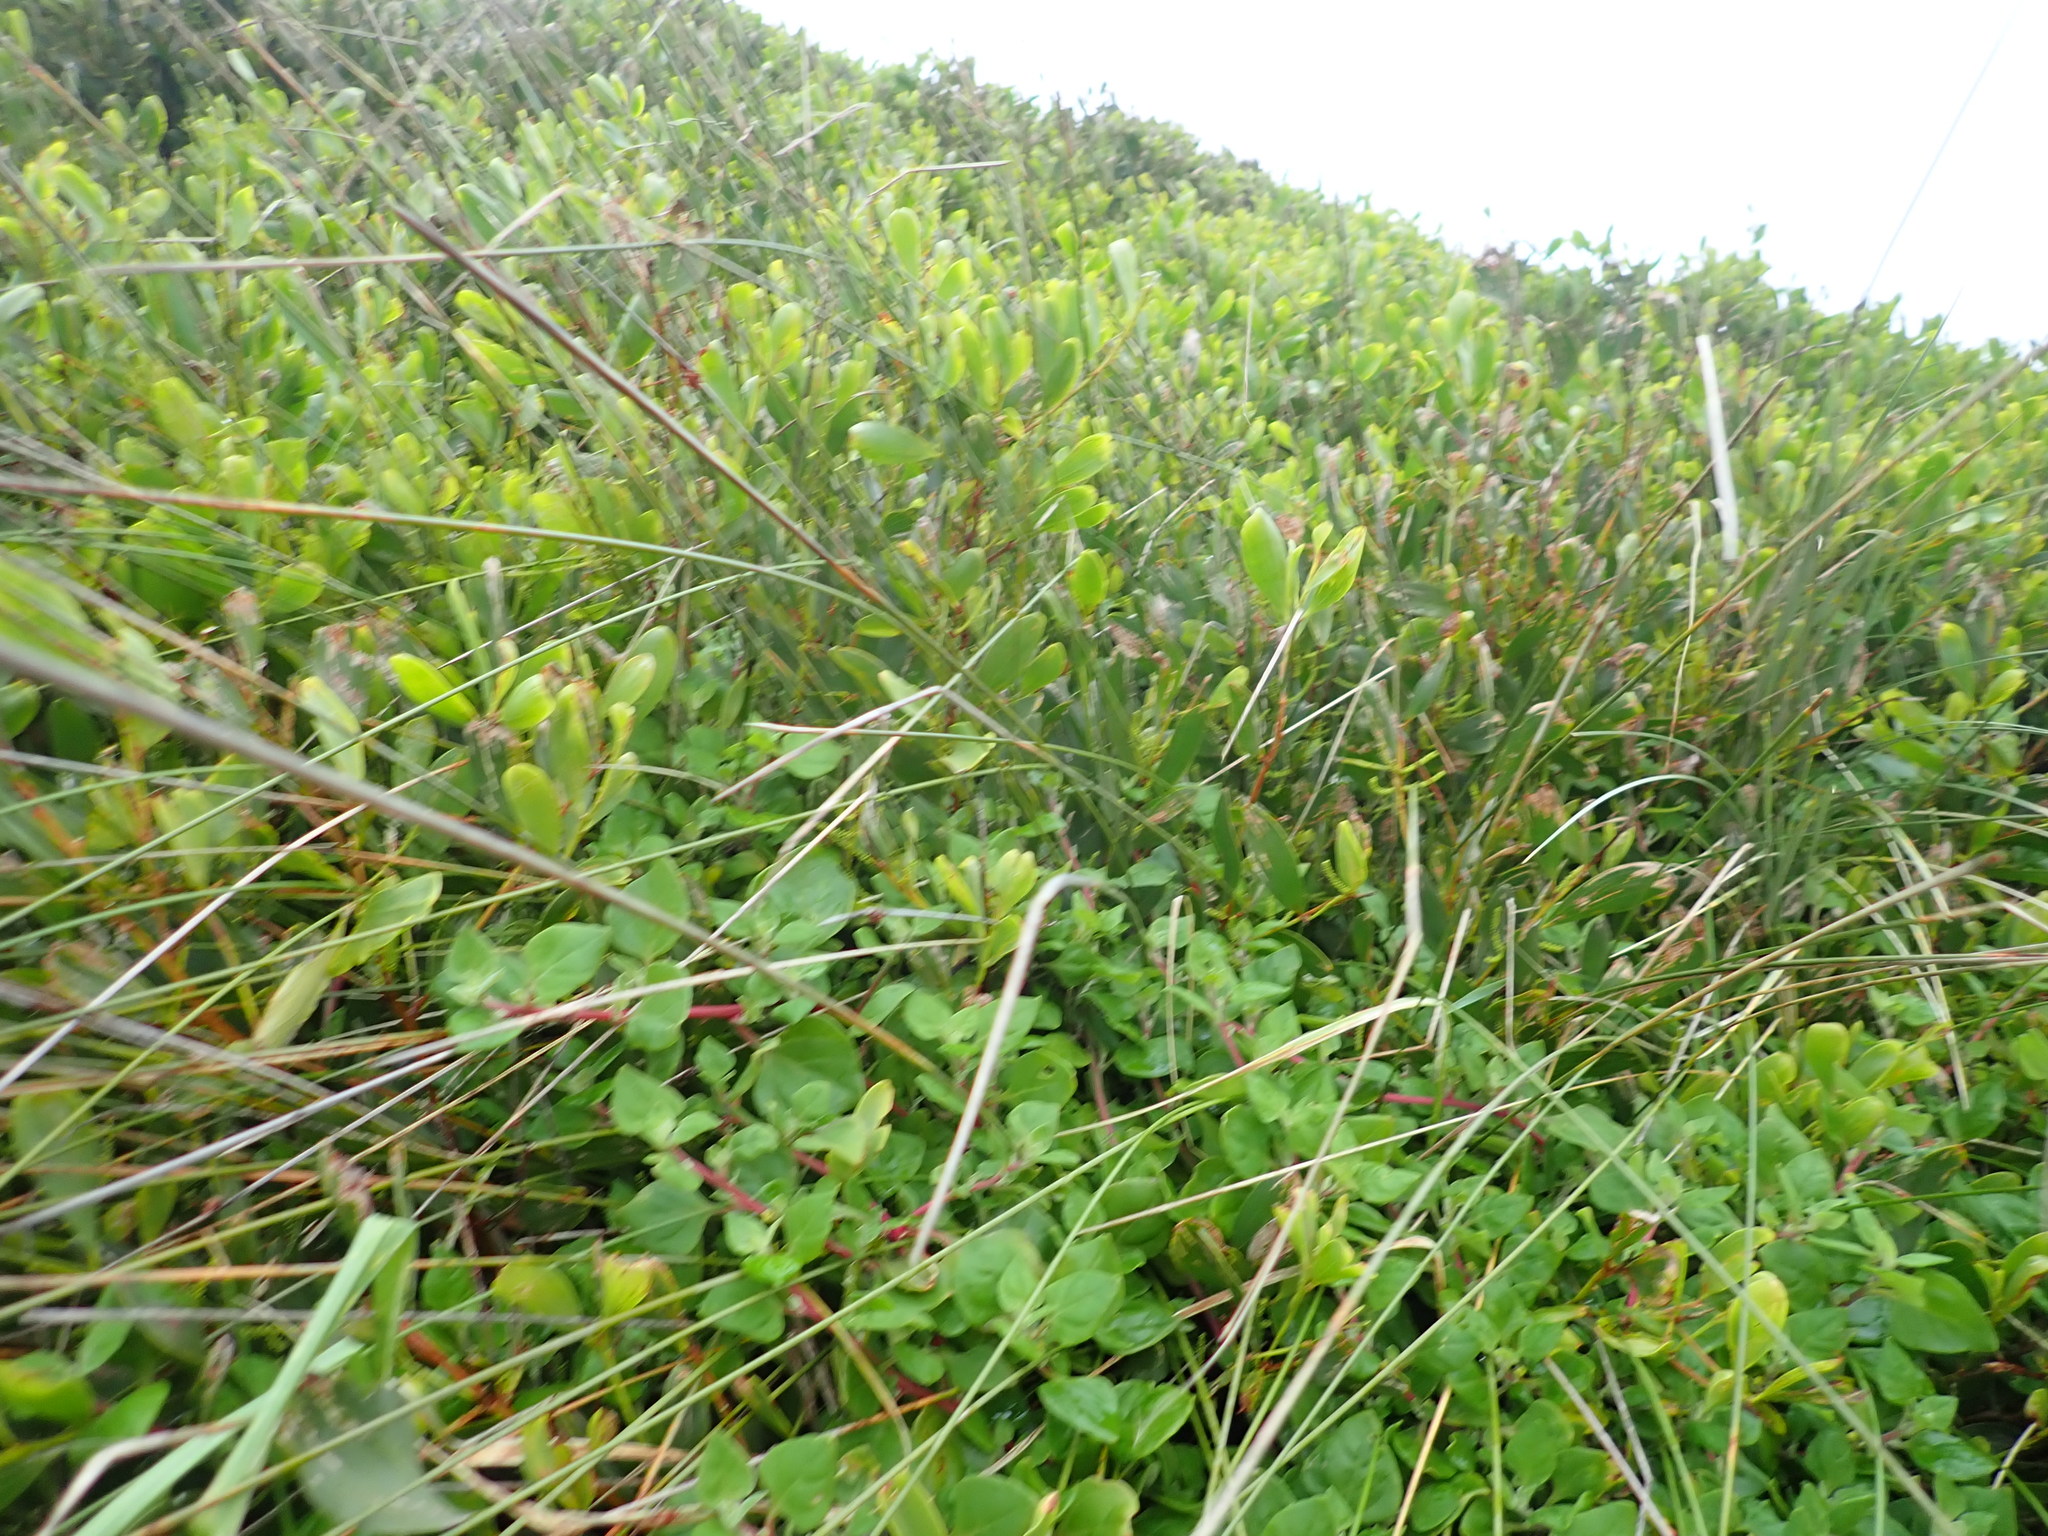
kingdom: Plantae
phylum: Tracheophyta
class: Magnoliopsida
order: Caryophyllales
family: Aizoaceae
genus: Tetragonia
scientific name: Tetragonia implexicoma
